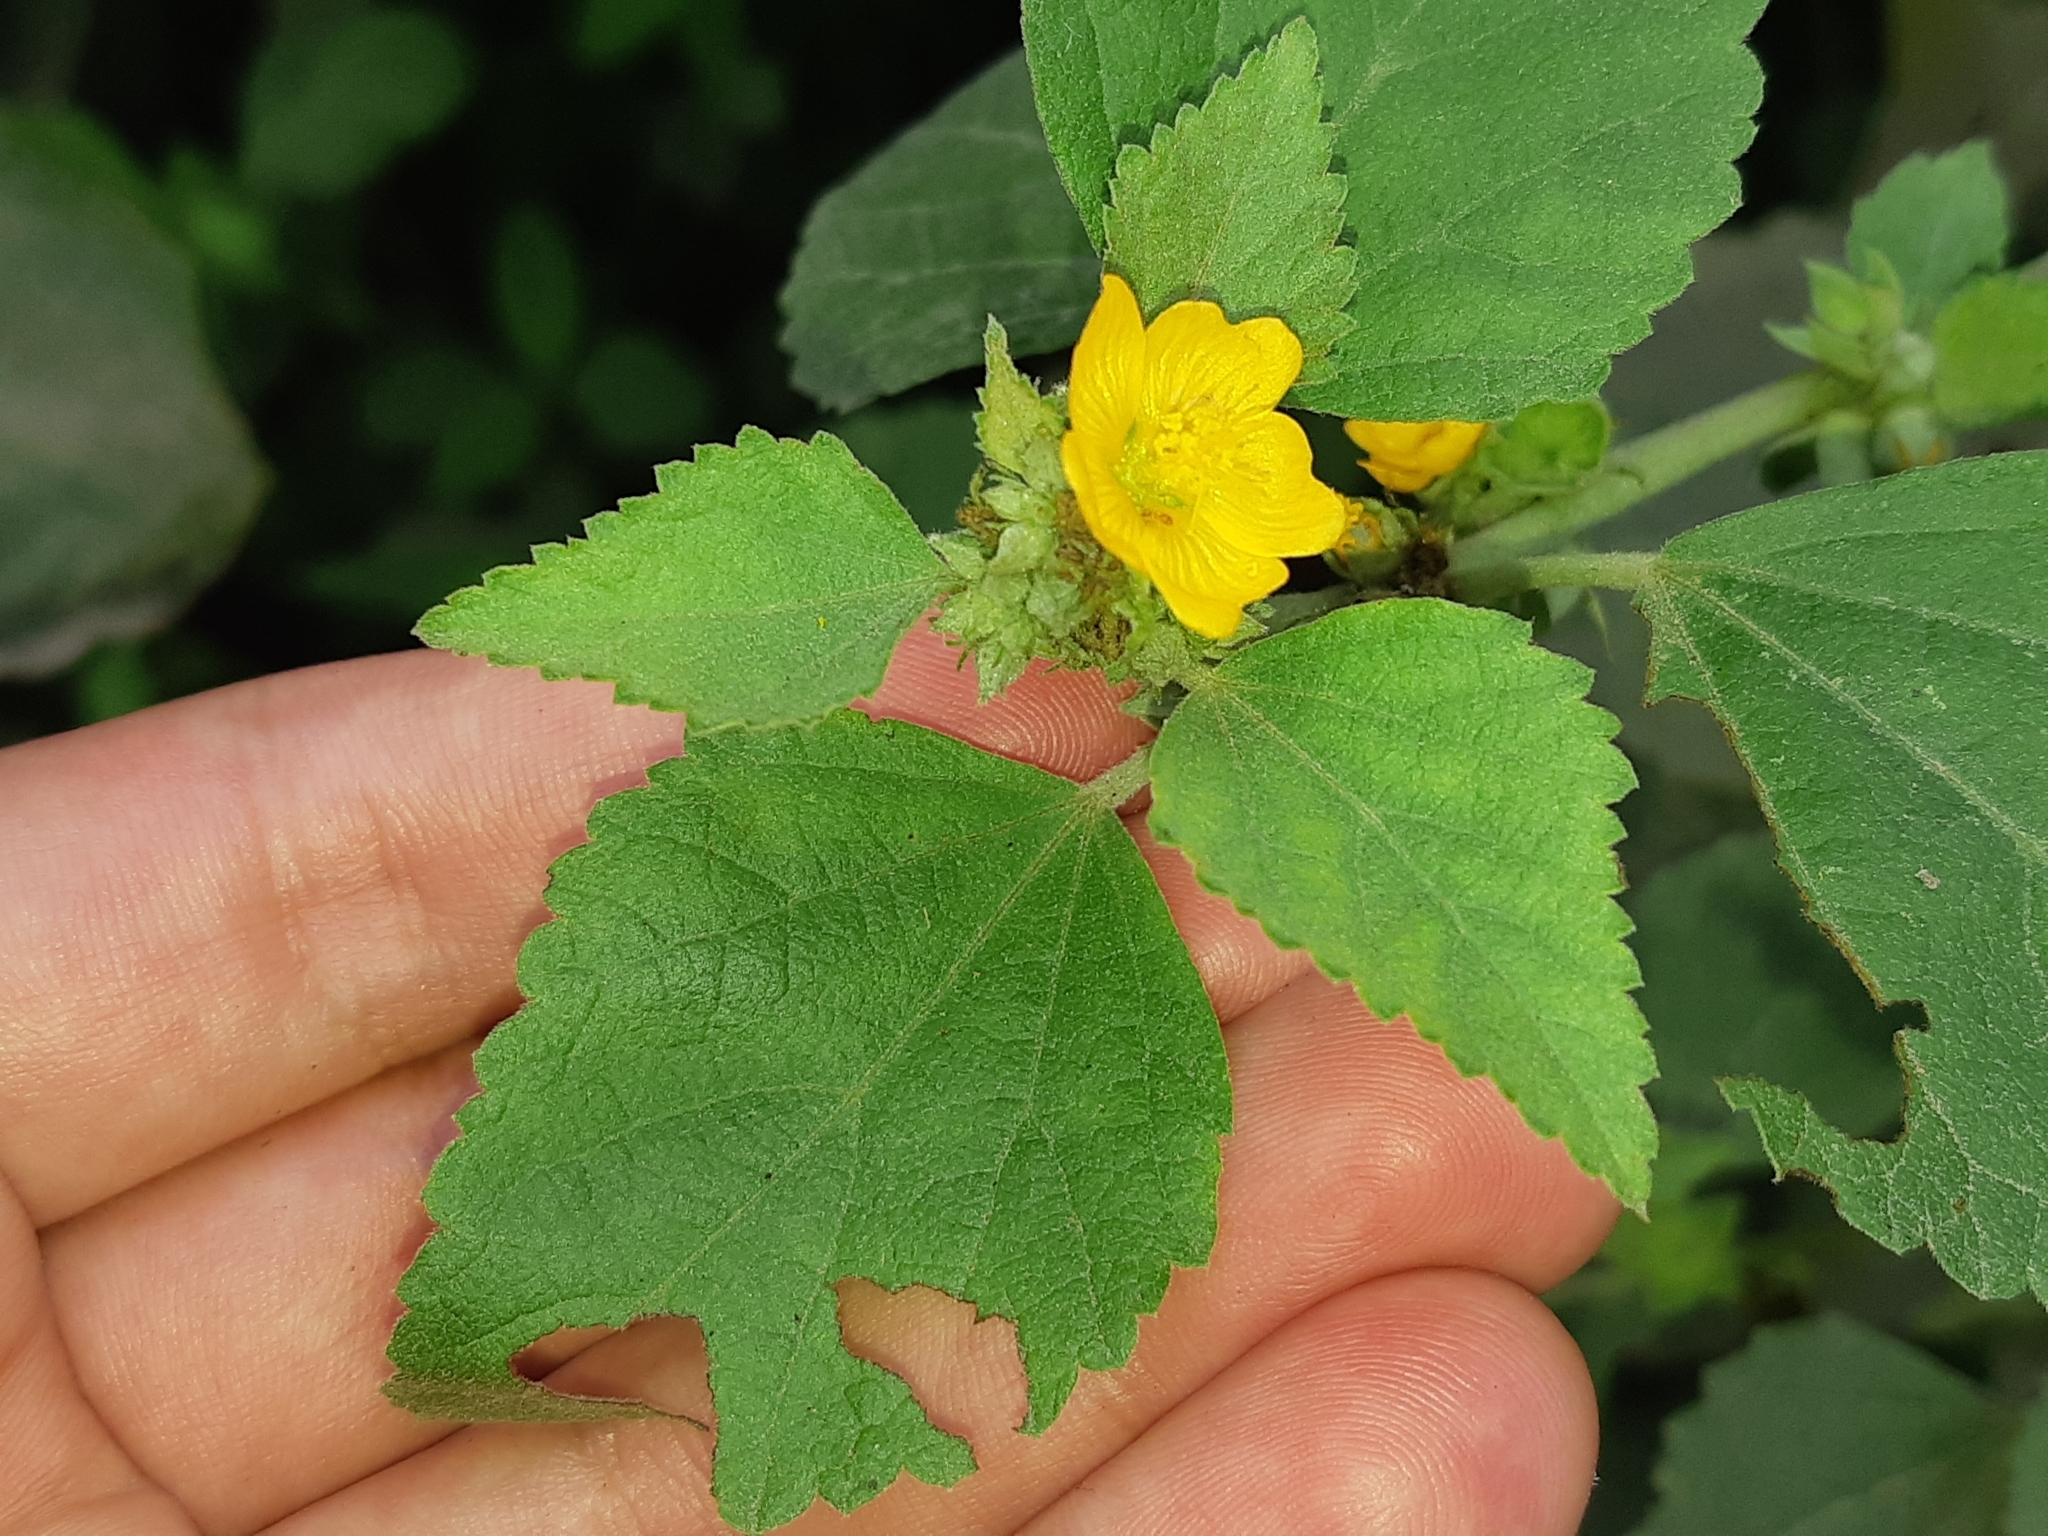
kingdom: Plantae
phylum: Tracheophyta
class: Magnoliopsida
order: Malvales
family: Malvaceae
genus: Malvastrum
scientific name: Malvastrum americanum
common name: Spiked malvastrum
